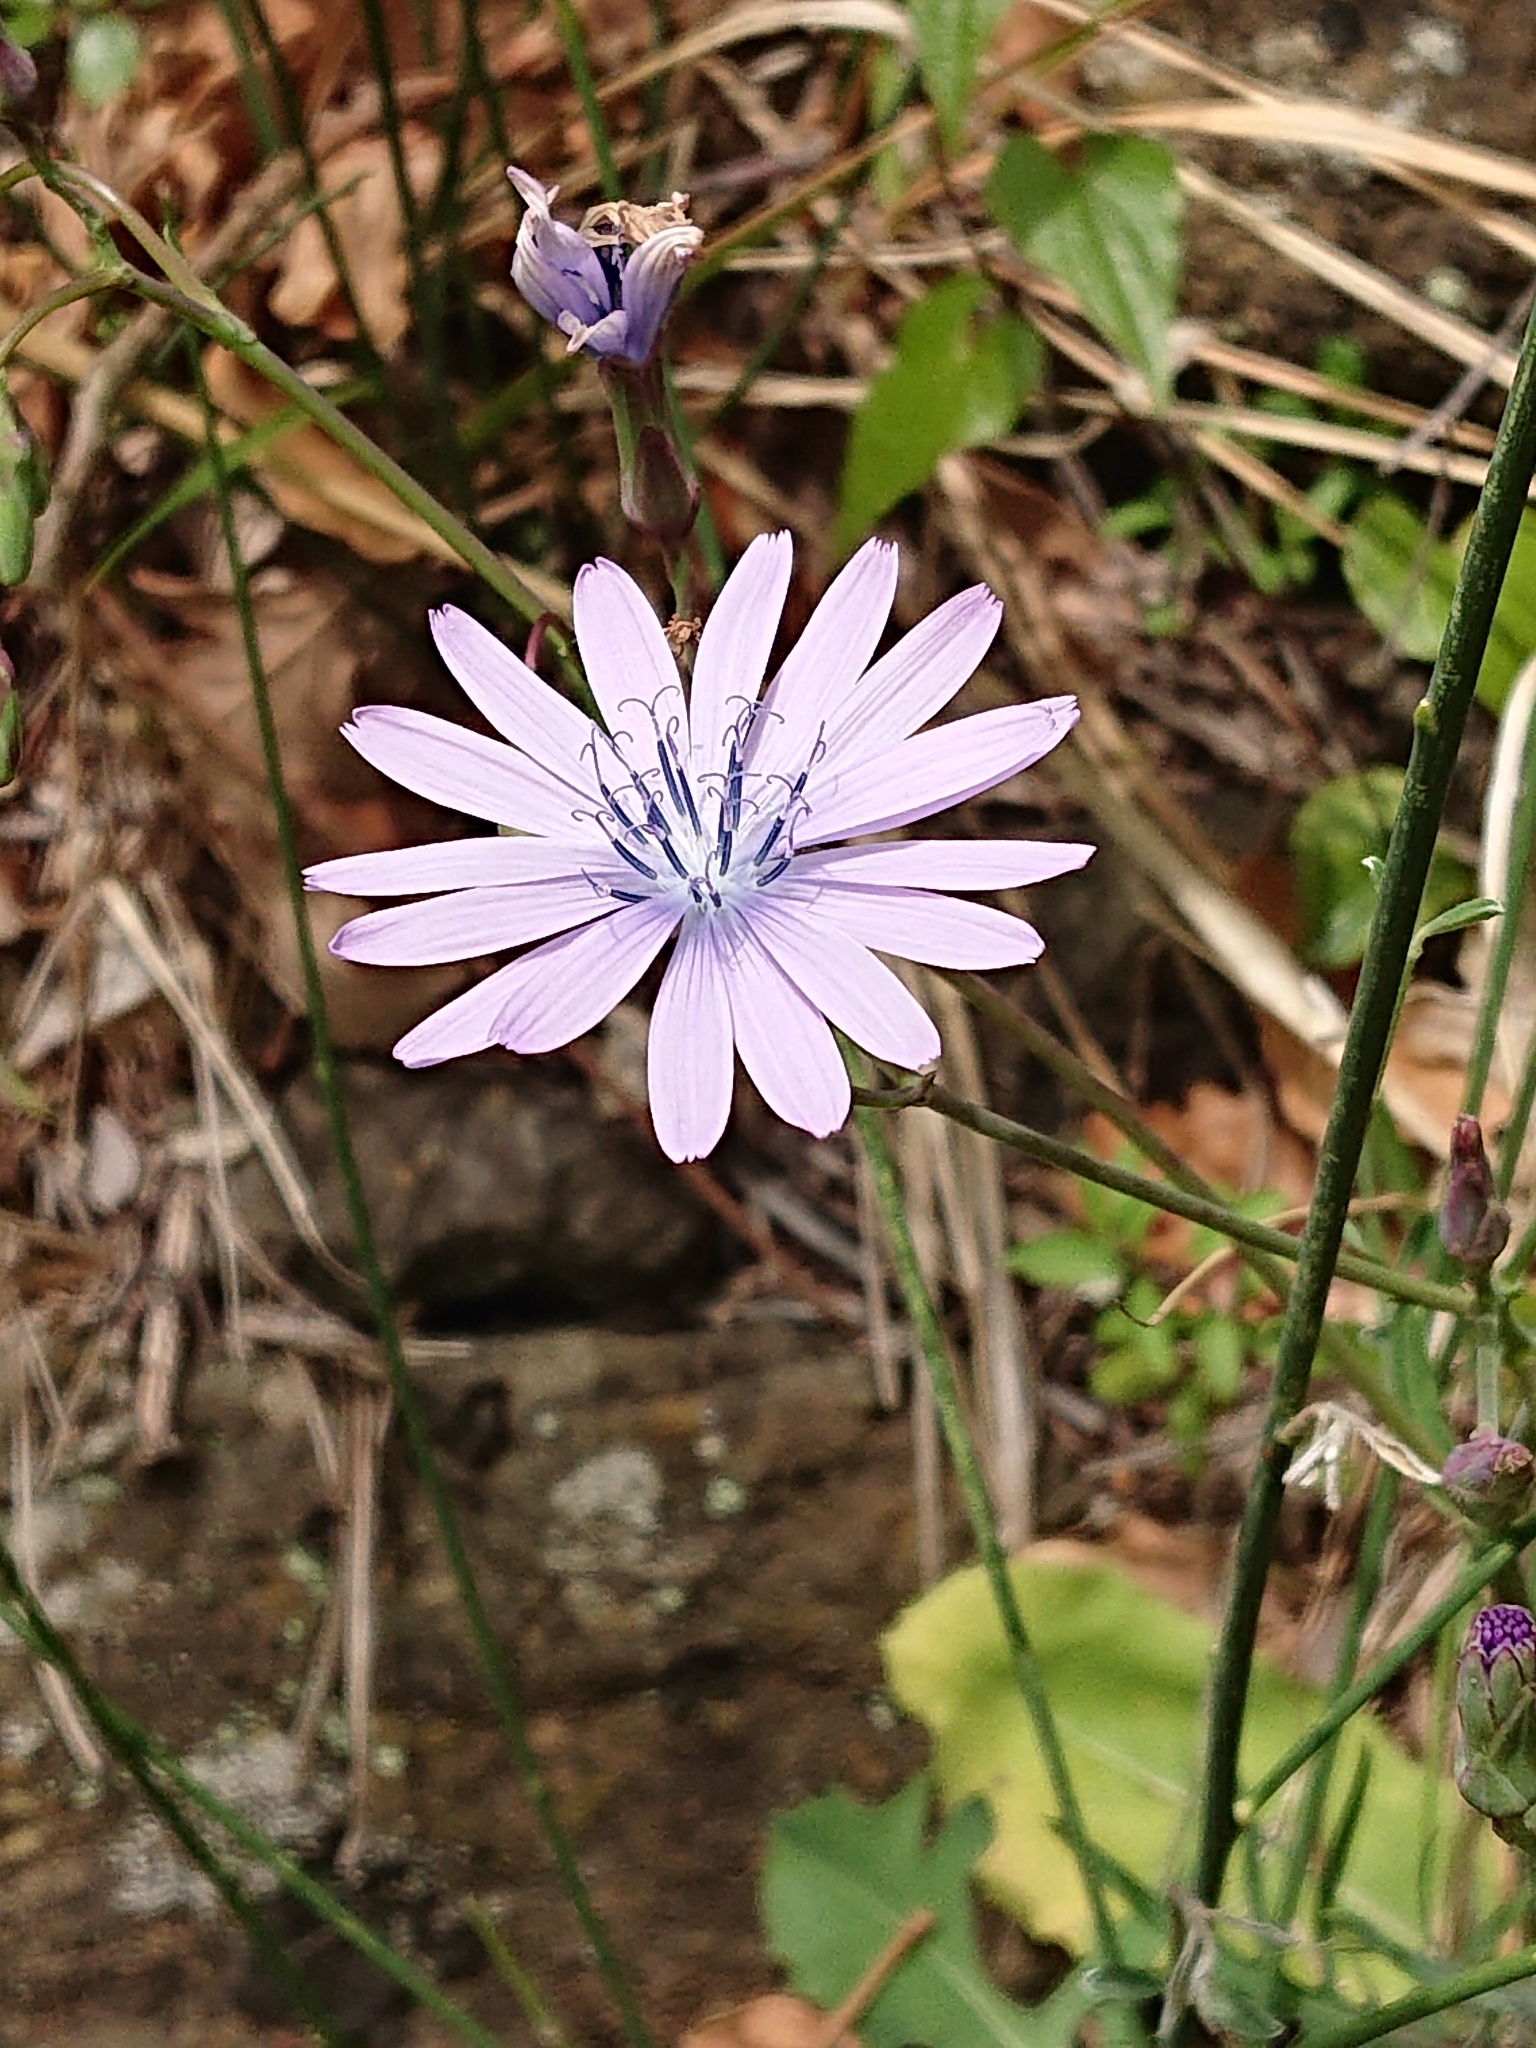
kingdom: Plantae
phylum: Tracheophyta
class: Magnoliopsida
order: Asterales
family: Asteraceae
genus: Lactuca
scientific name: Lactuca perennis
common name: Mountain lettuce
